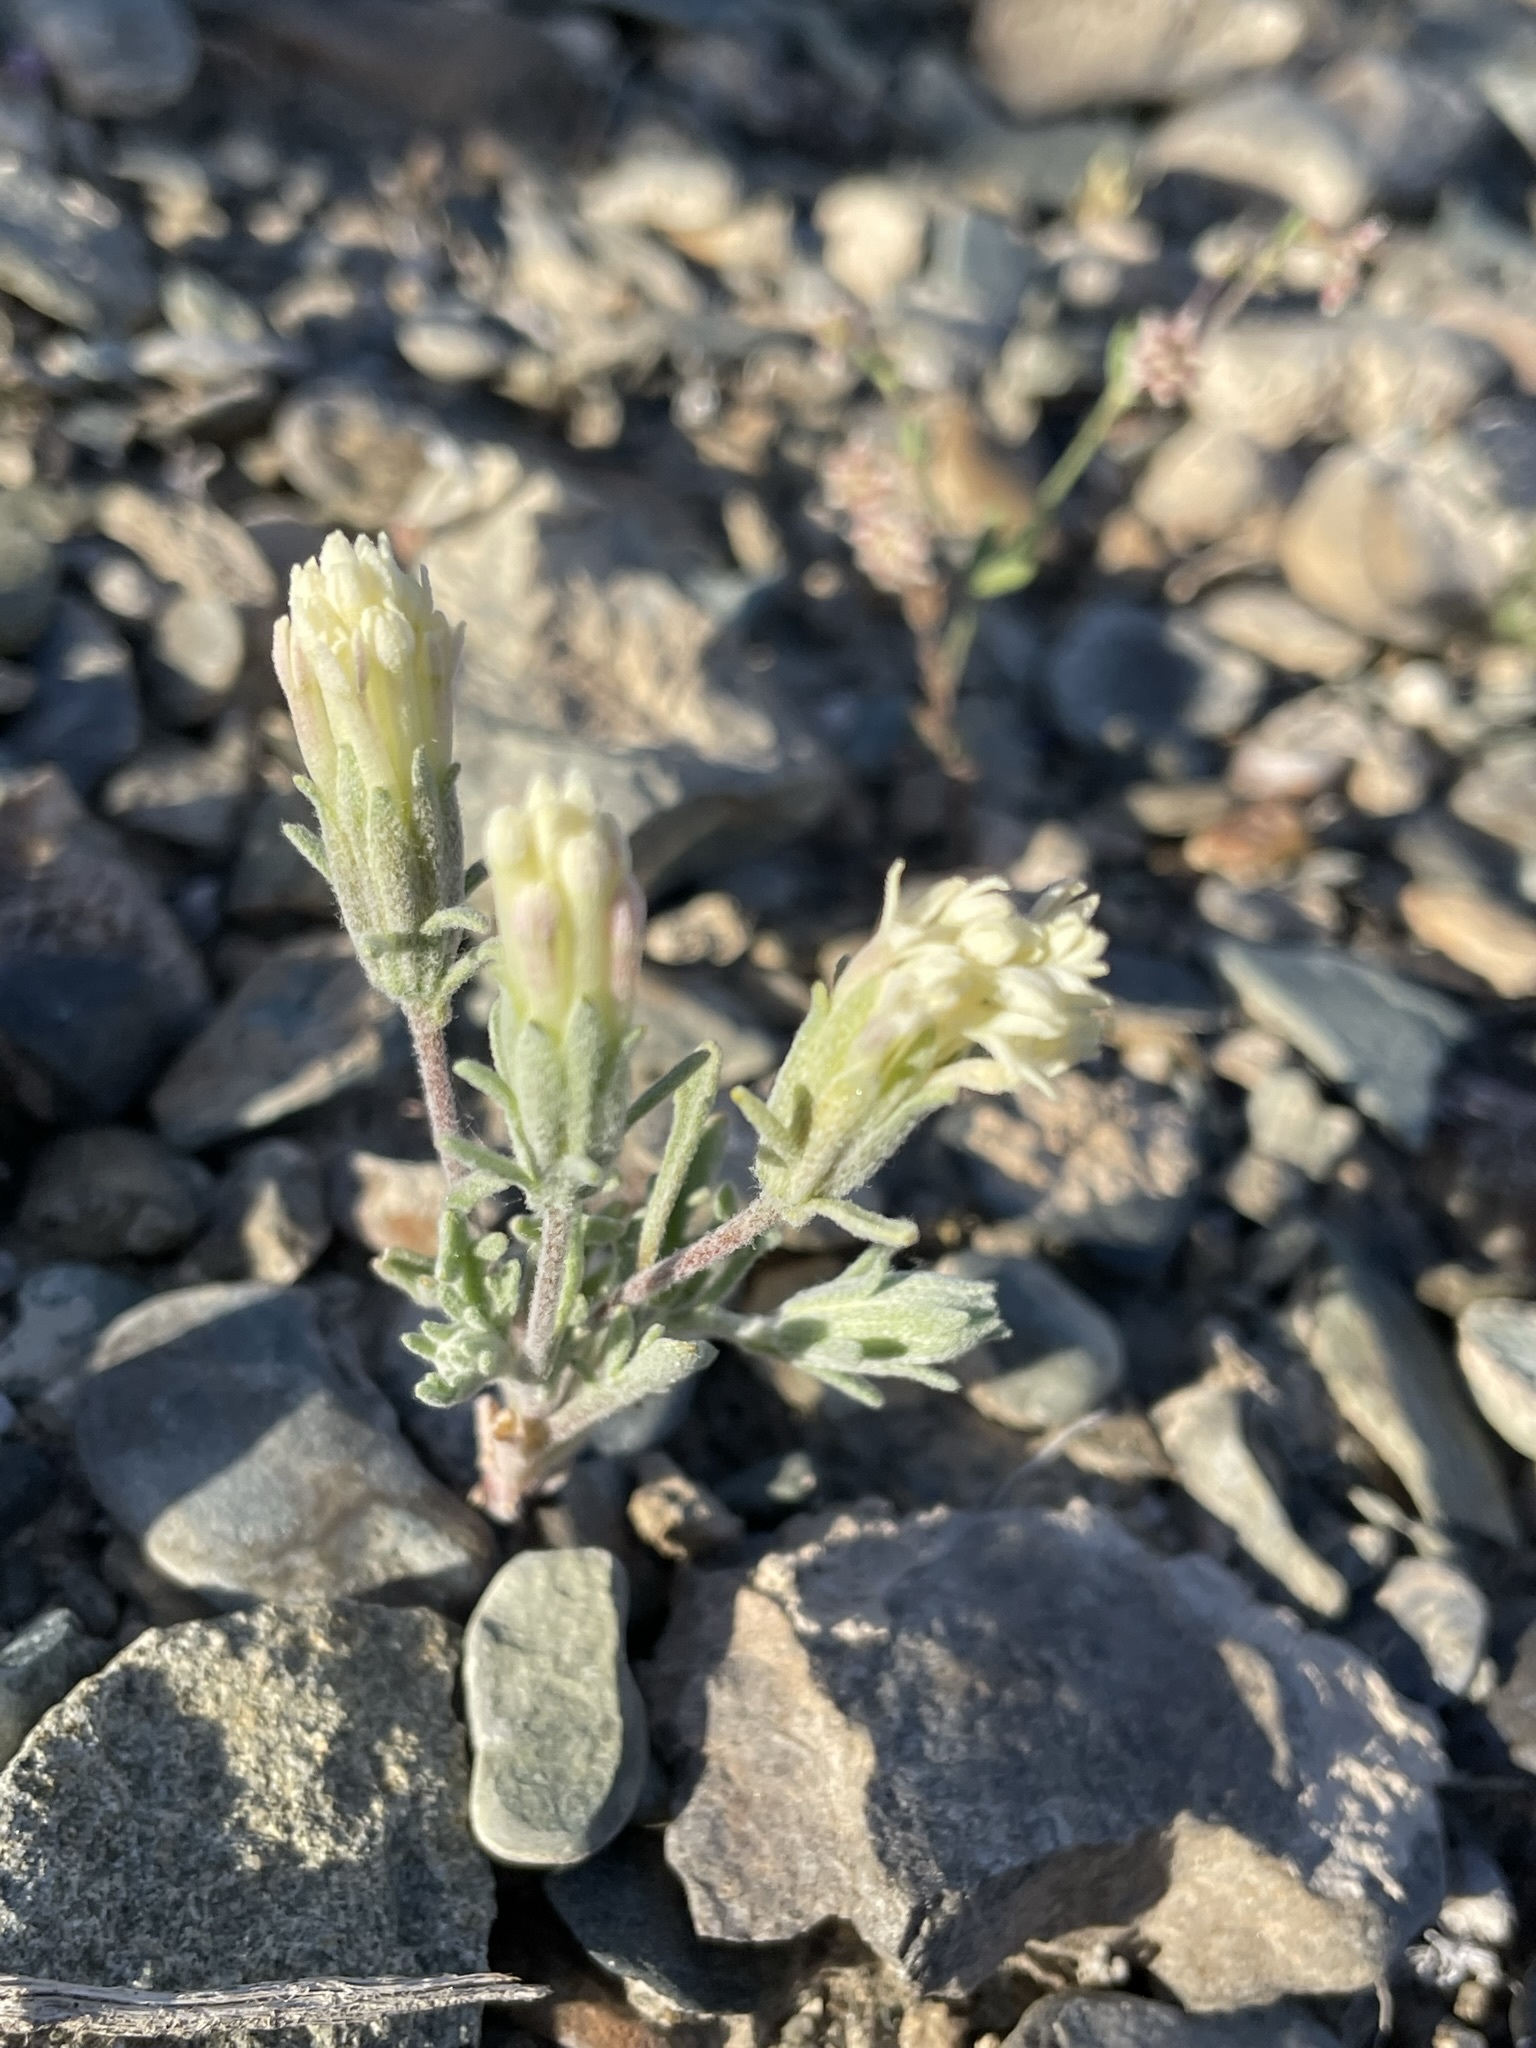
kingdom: Plantae
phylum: Tracheophyta
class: Magnoliopsida
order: Asterales
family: Asteraceae
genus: Chaenactis
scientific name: Chaenactis macrantha
